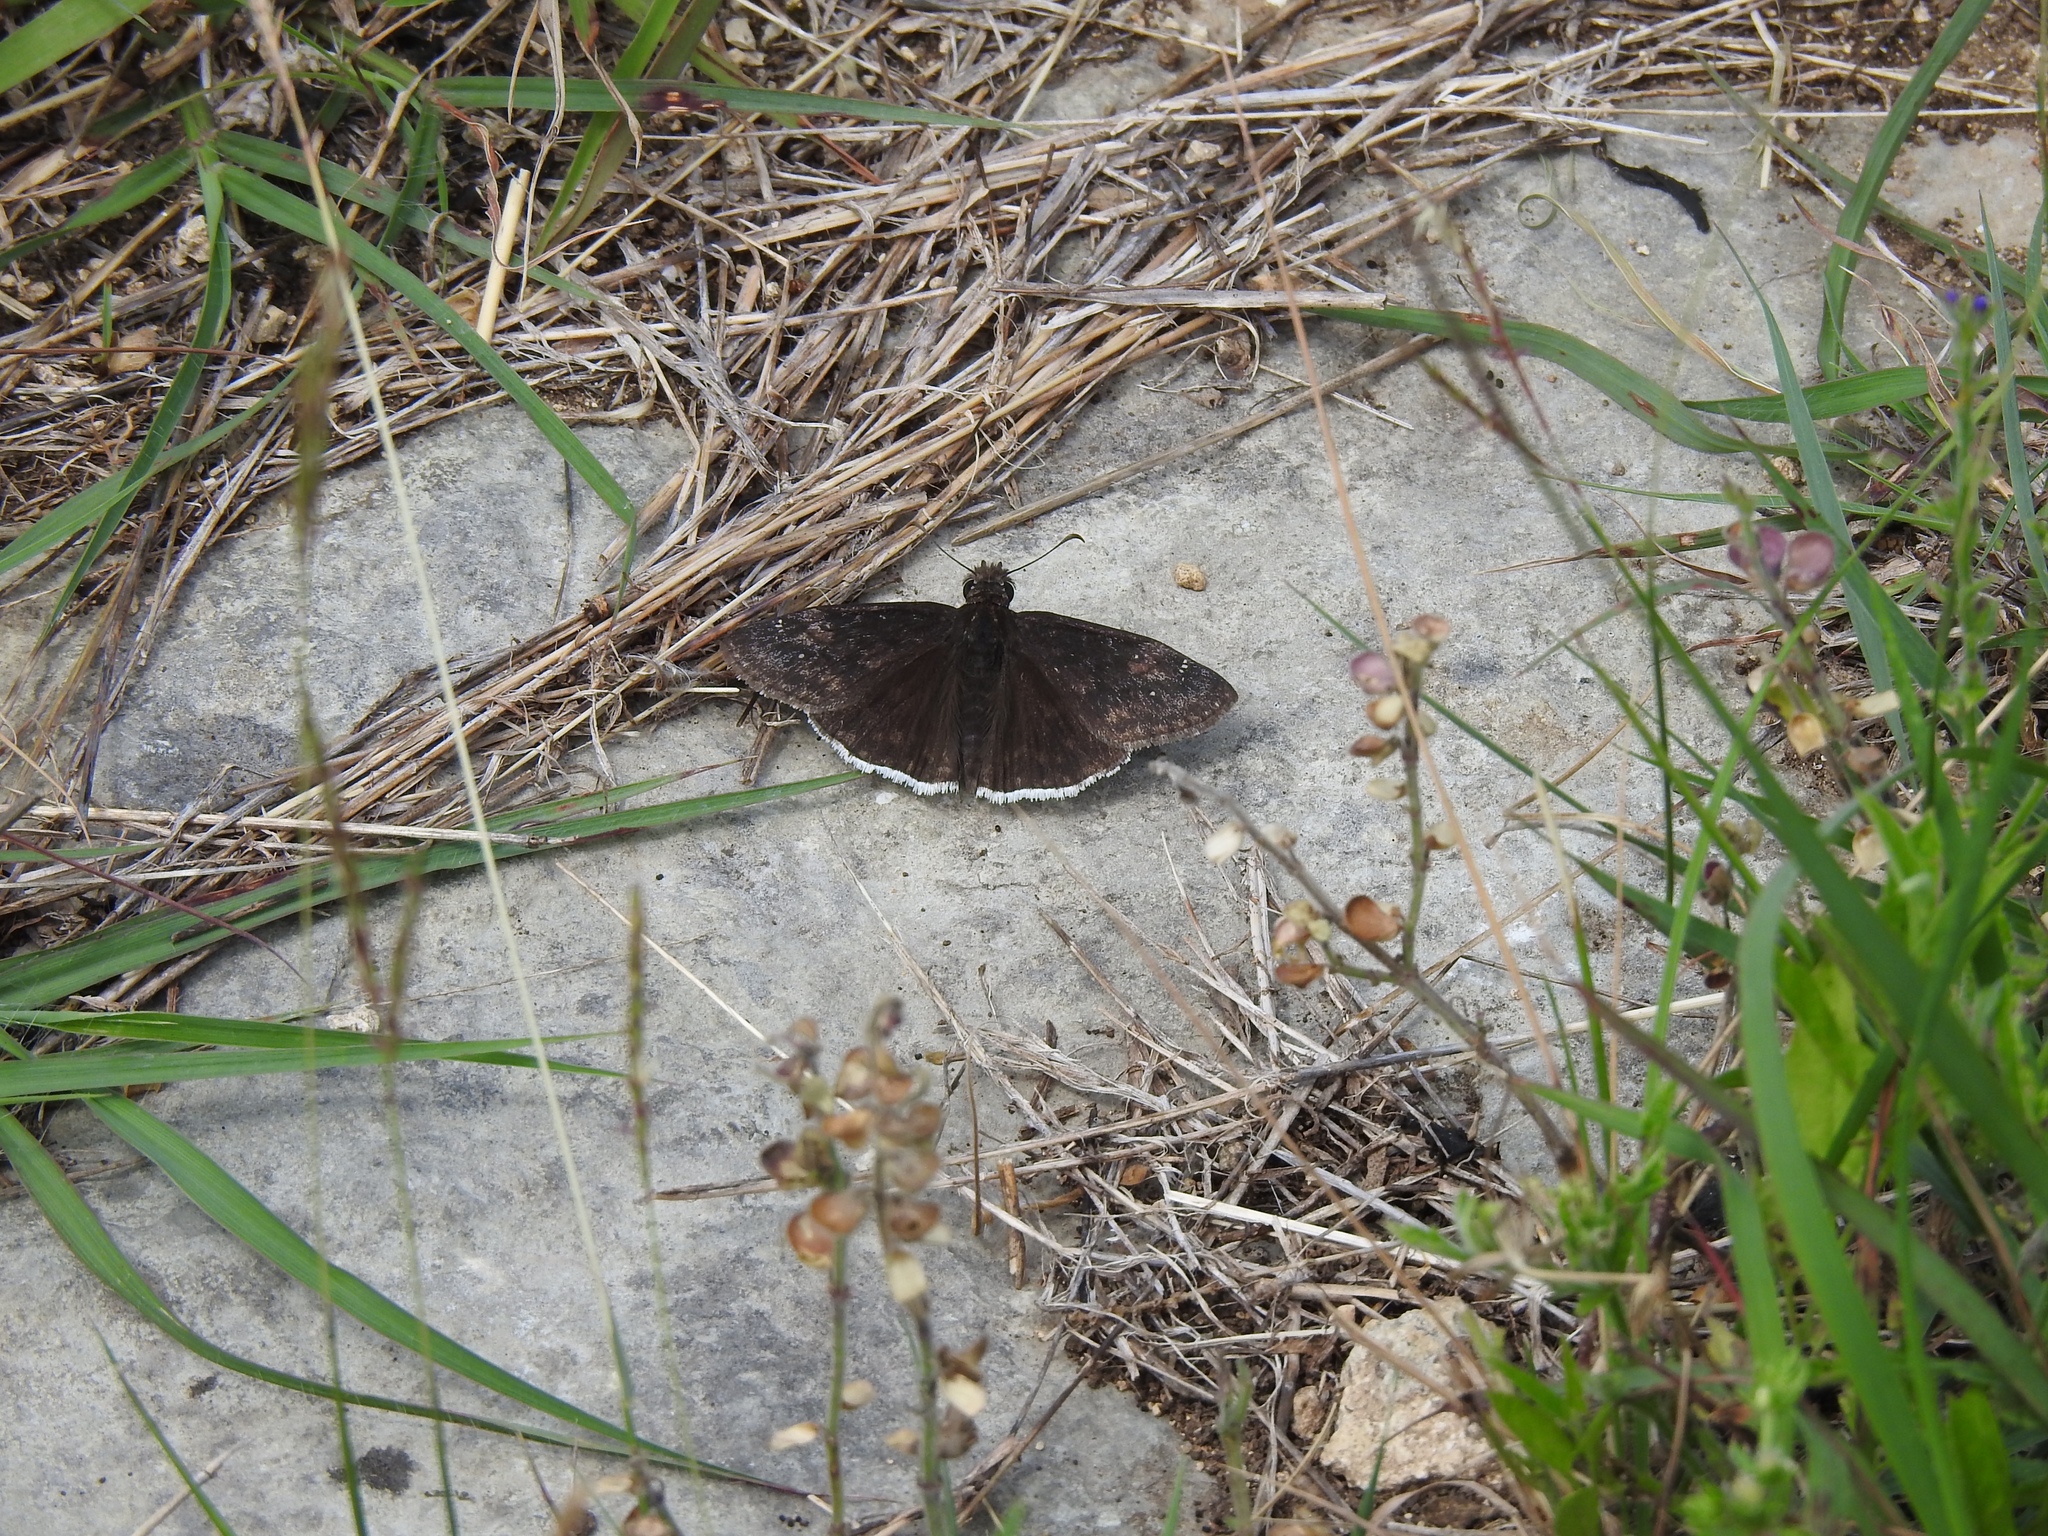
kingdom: Animalia
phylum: Arthropoda
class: Insecta
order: Lepidoptera
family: Hesperiidae
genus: Erynnis
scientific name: Erynnis funeralis
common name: Funereal duskywing
